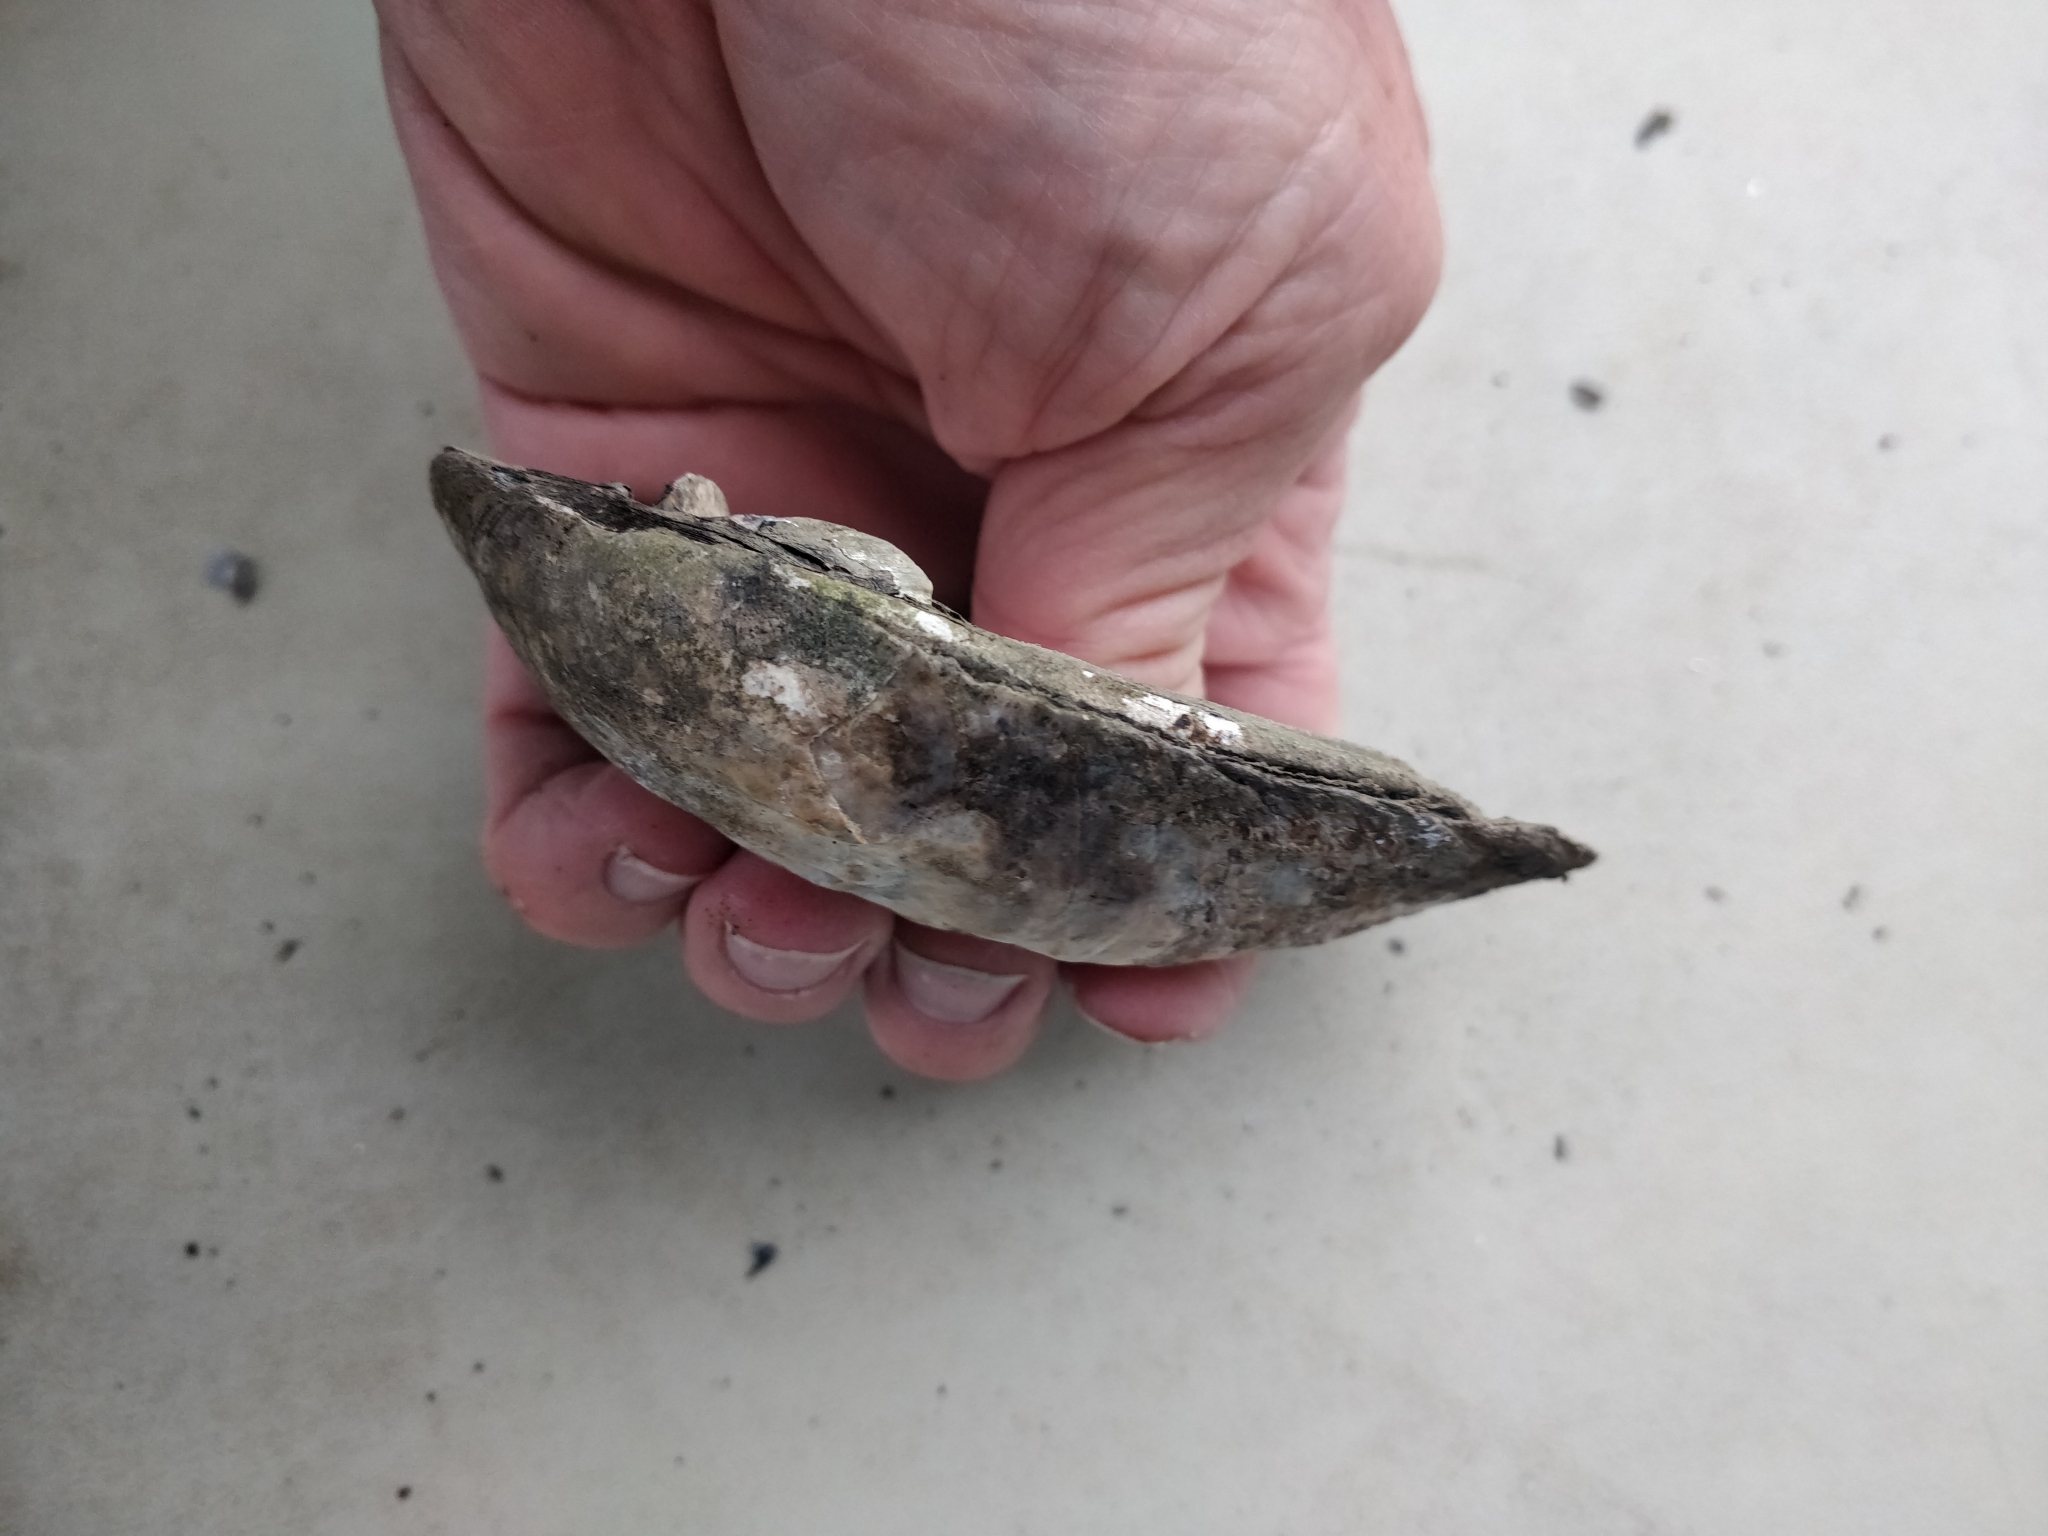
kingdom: Animalia
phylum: Mollusca
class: Bivalvia
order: Unionida
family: Unionidae
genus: Amblema
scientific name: Amblema plicata
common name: Threeridge
